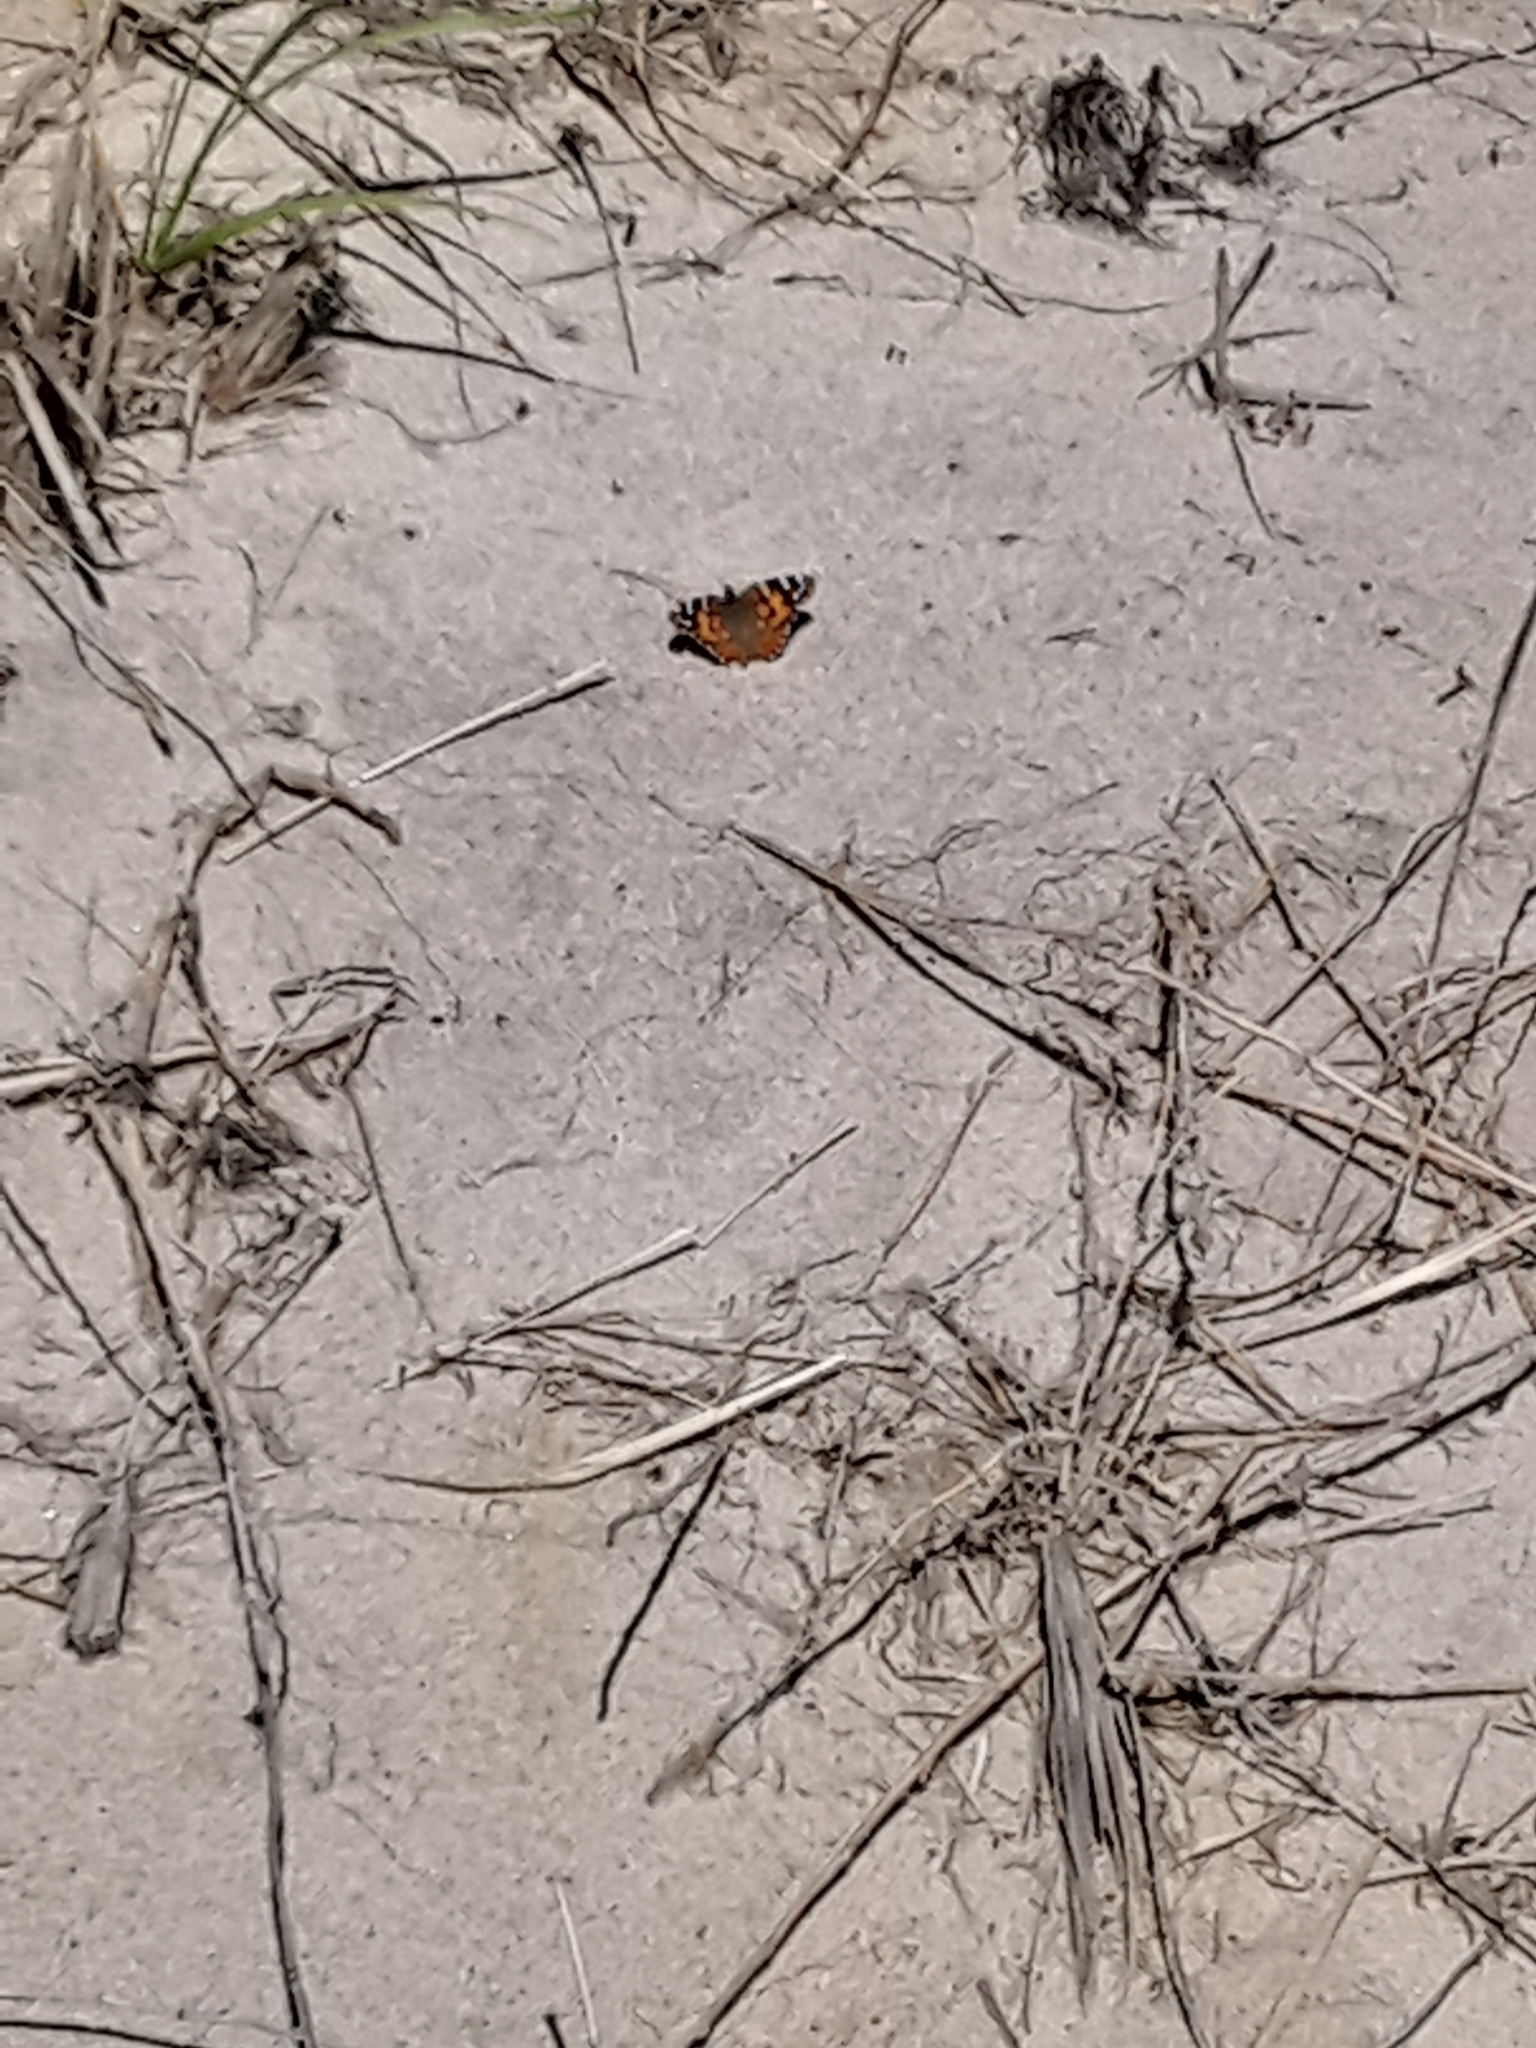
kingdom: Animalia
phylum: Arthropoda
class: Insecta
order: Lepidoptera
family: Nymphalidae
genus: Vanessa
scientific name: Vanessa cardui
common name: Painted lady
